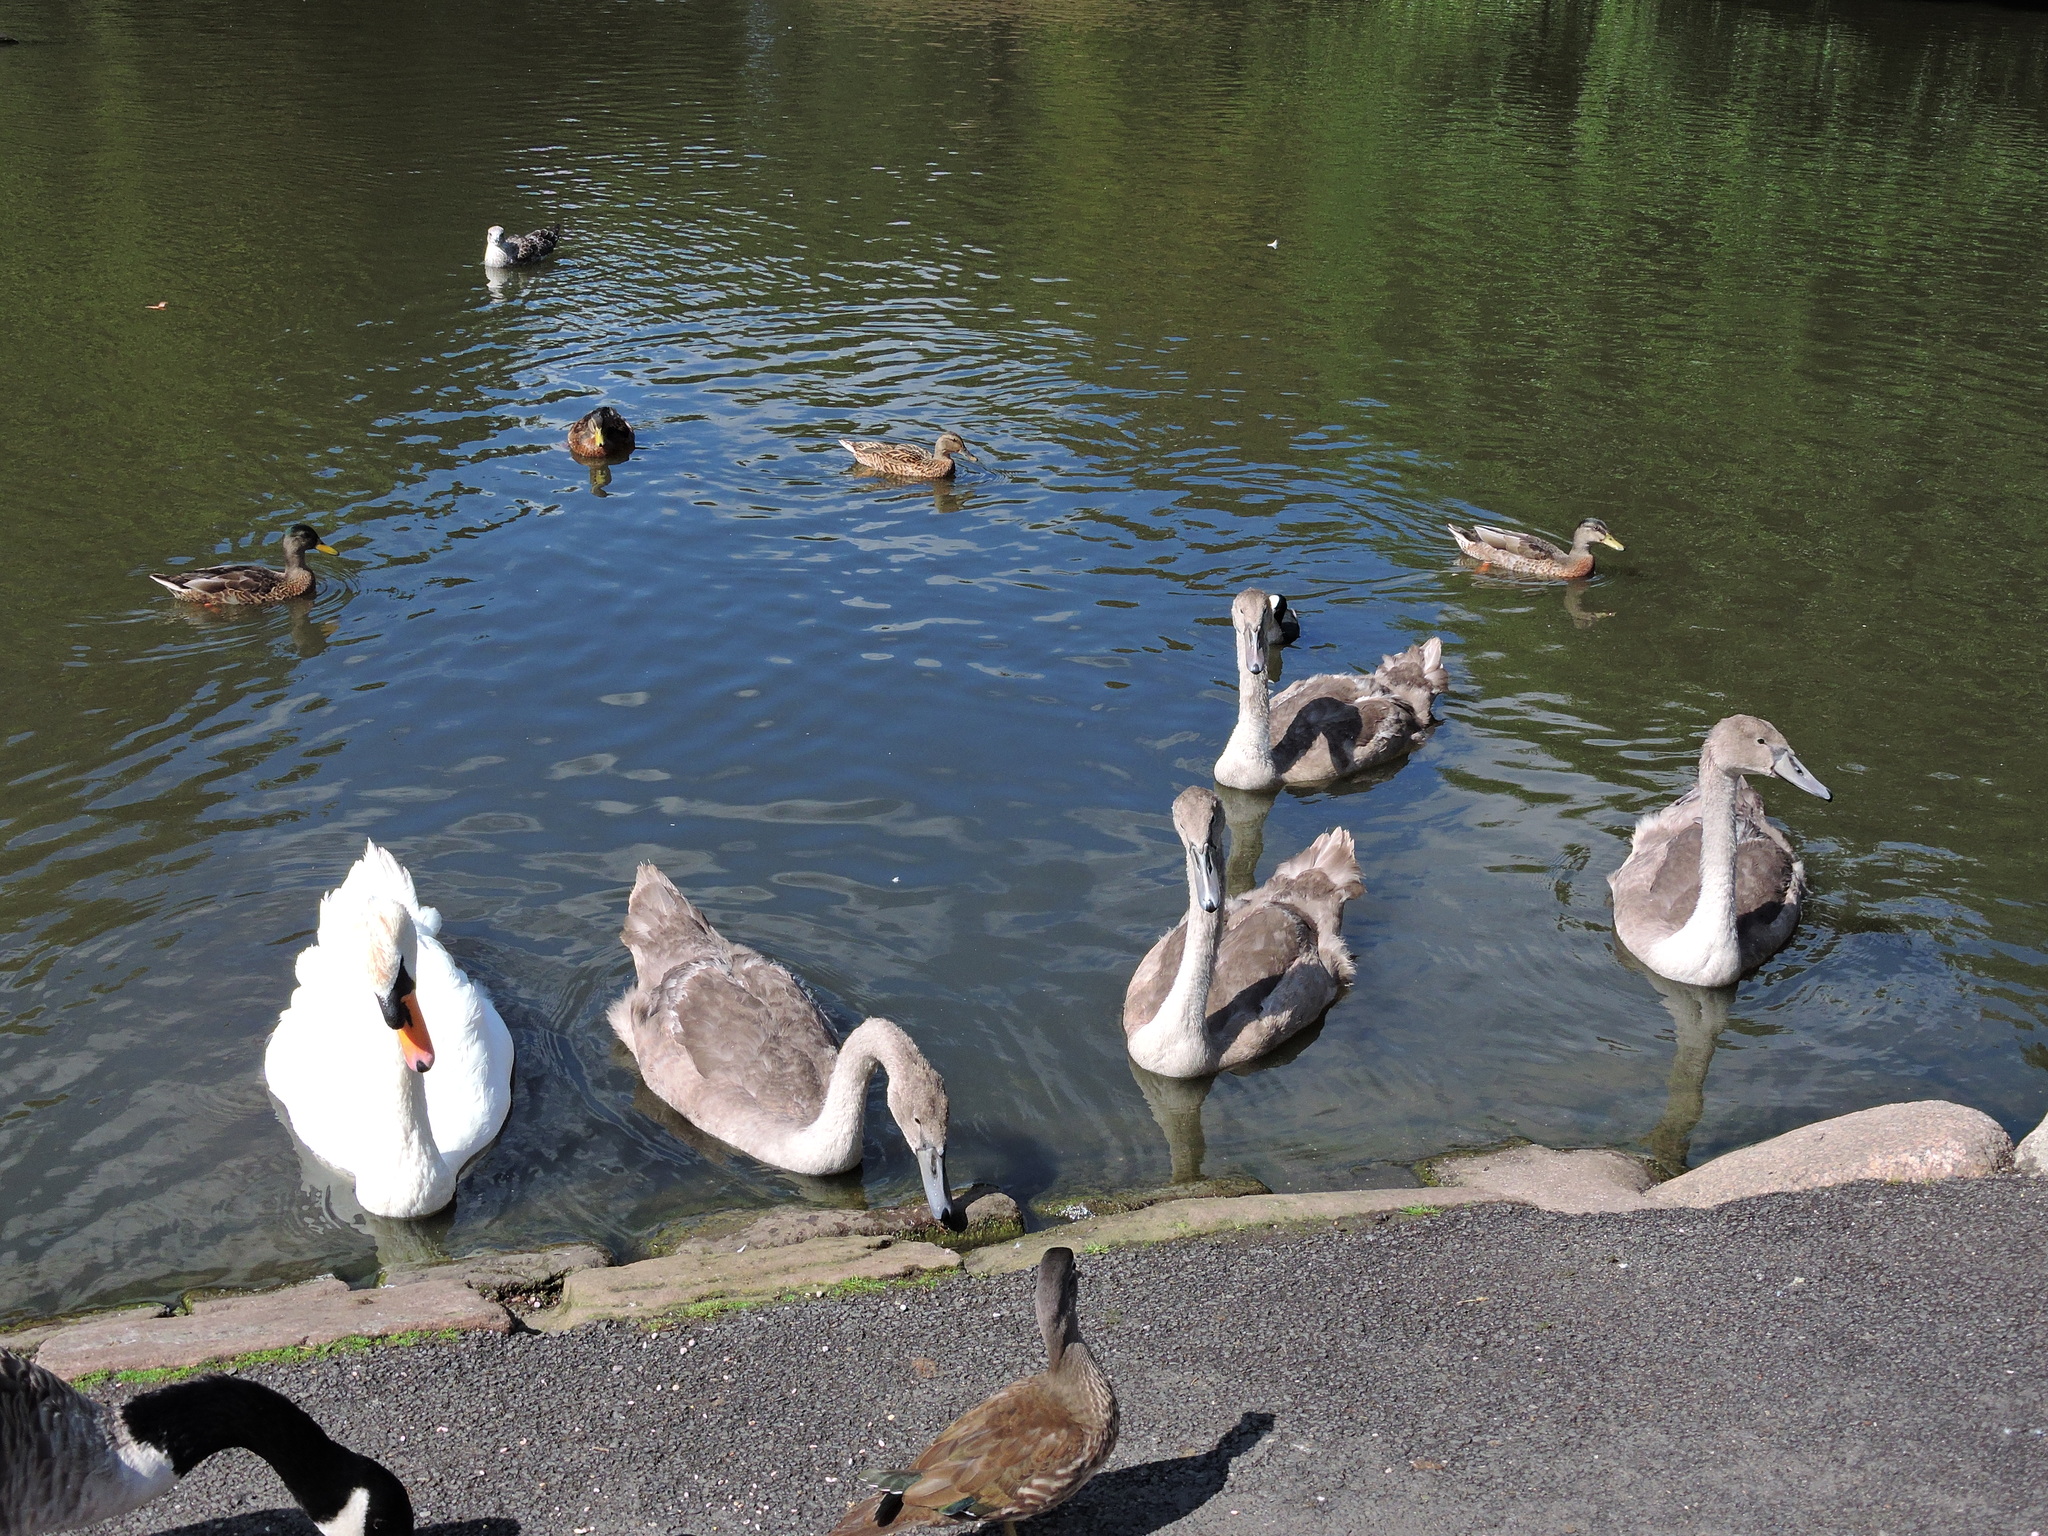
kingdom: Animalia
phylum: Chordata
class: Aves
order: Anseriformes
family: Anatidae
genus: Cygnus
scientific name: Cygnus olor
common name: Mute swan
